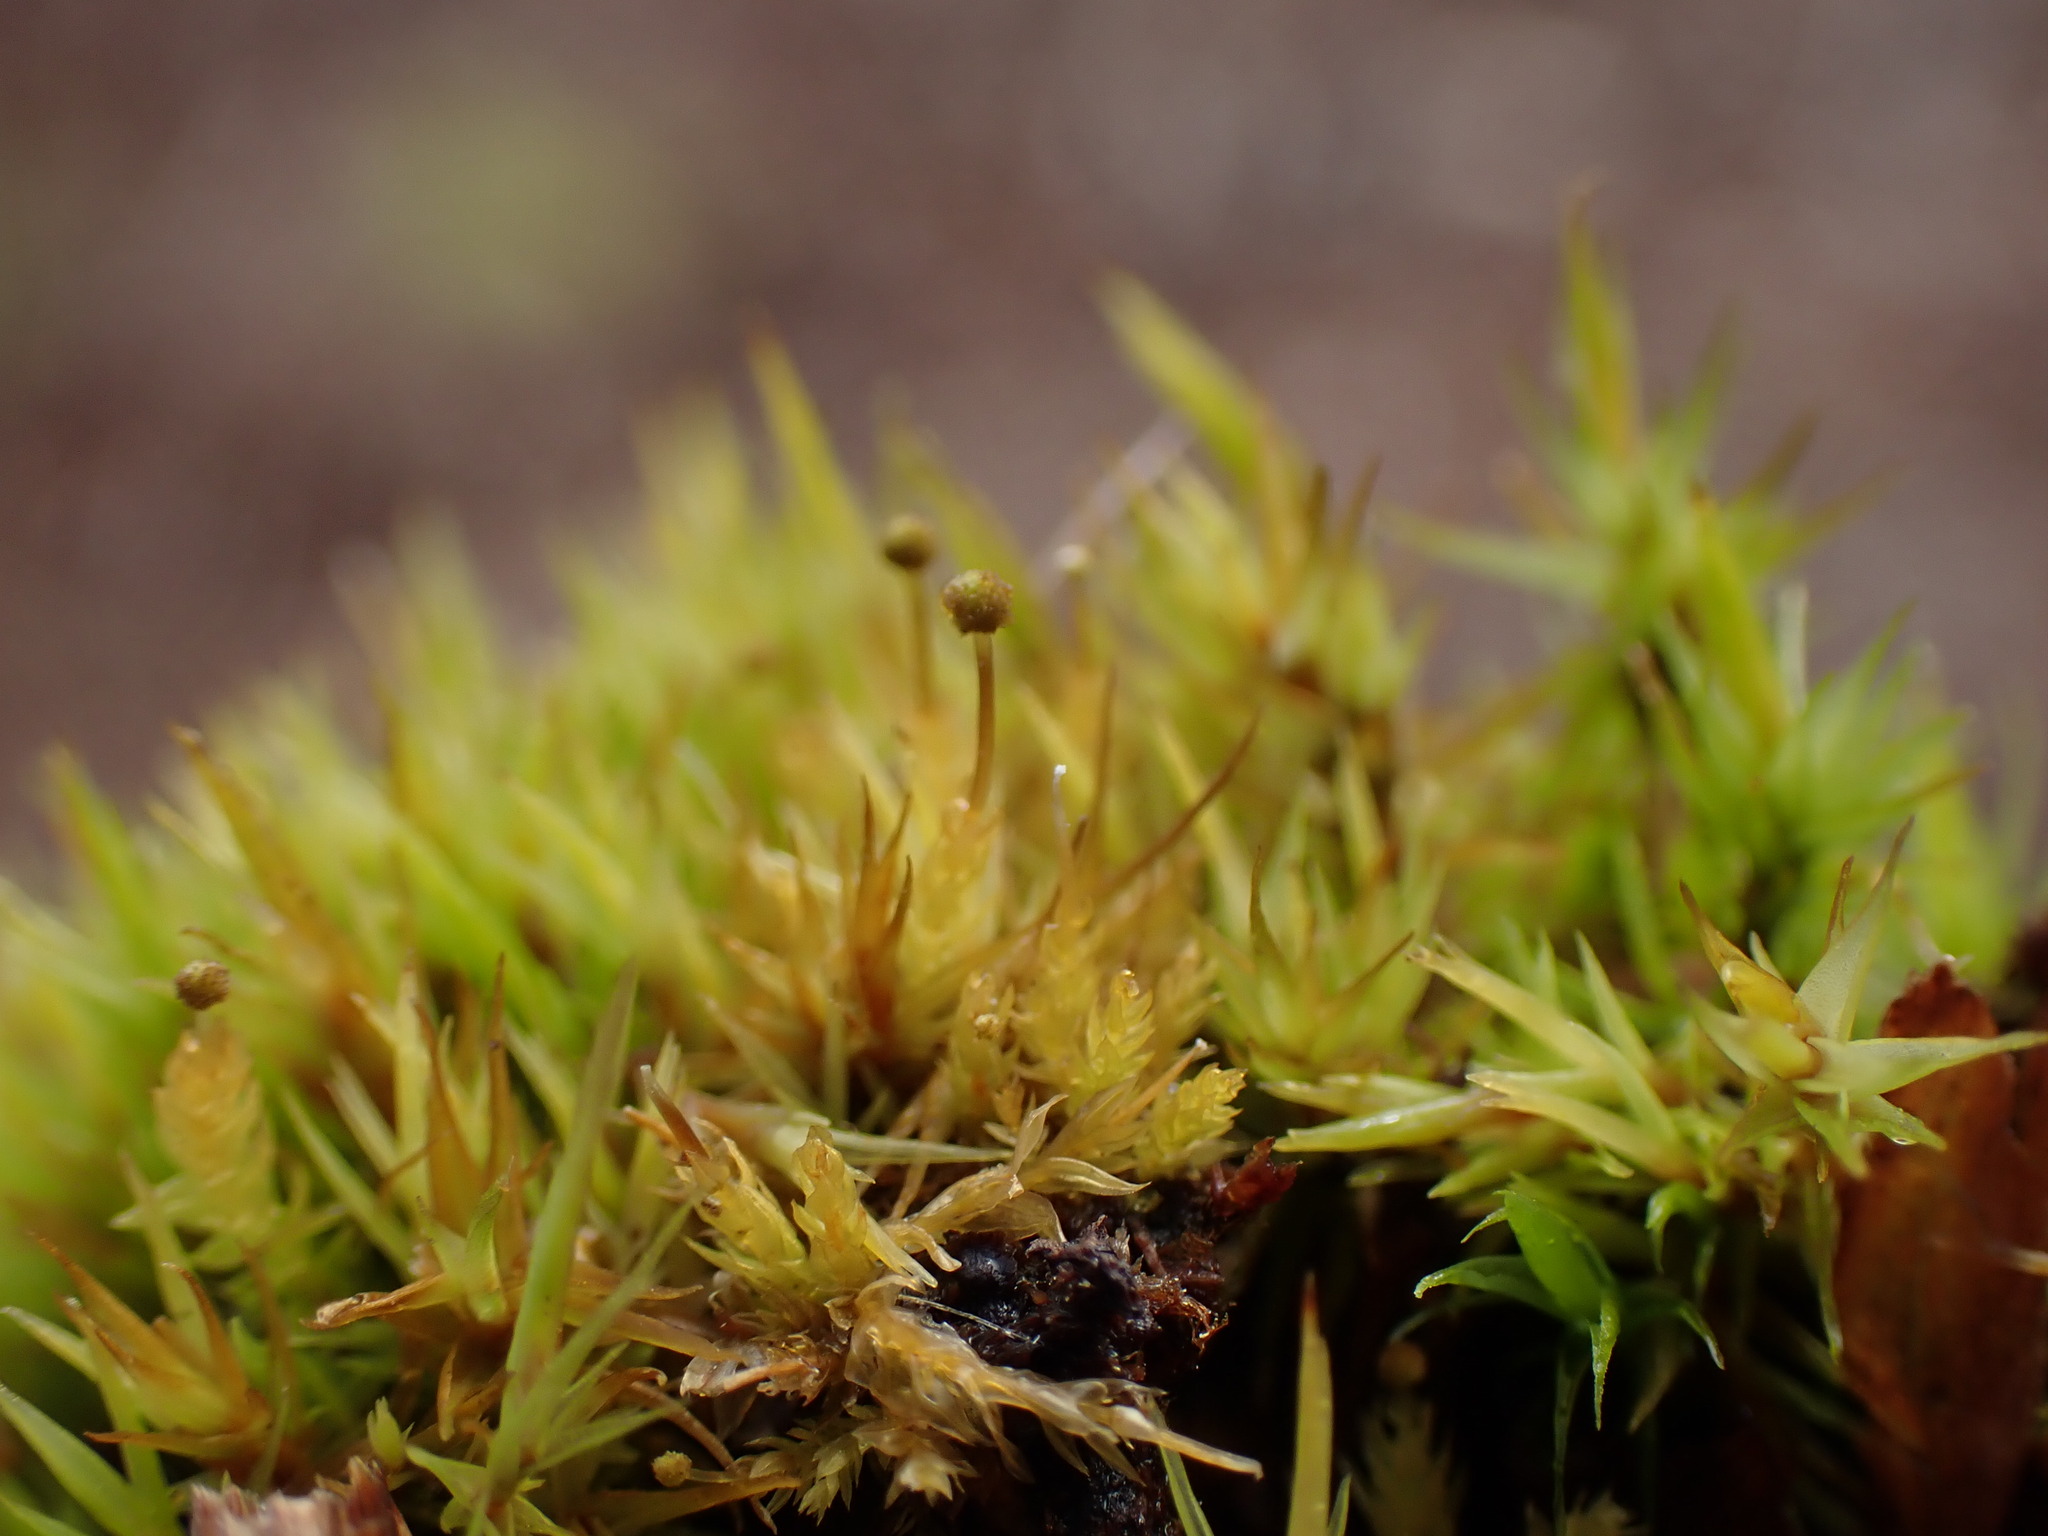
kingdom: Plantae
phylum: Bryophyta
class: Bryopsida
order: Aulacomniales
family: Aulacomniaceae
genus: Aulacomnium
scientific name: Aulacomnium androgynum
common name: Little groove moss
